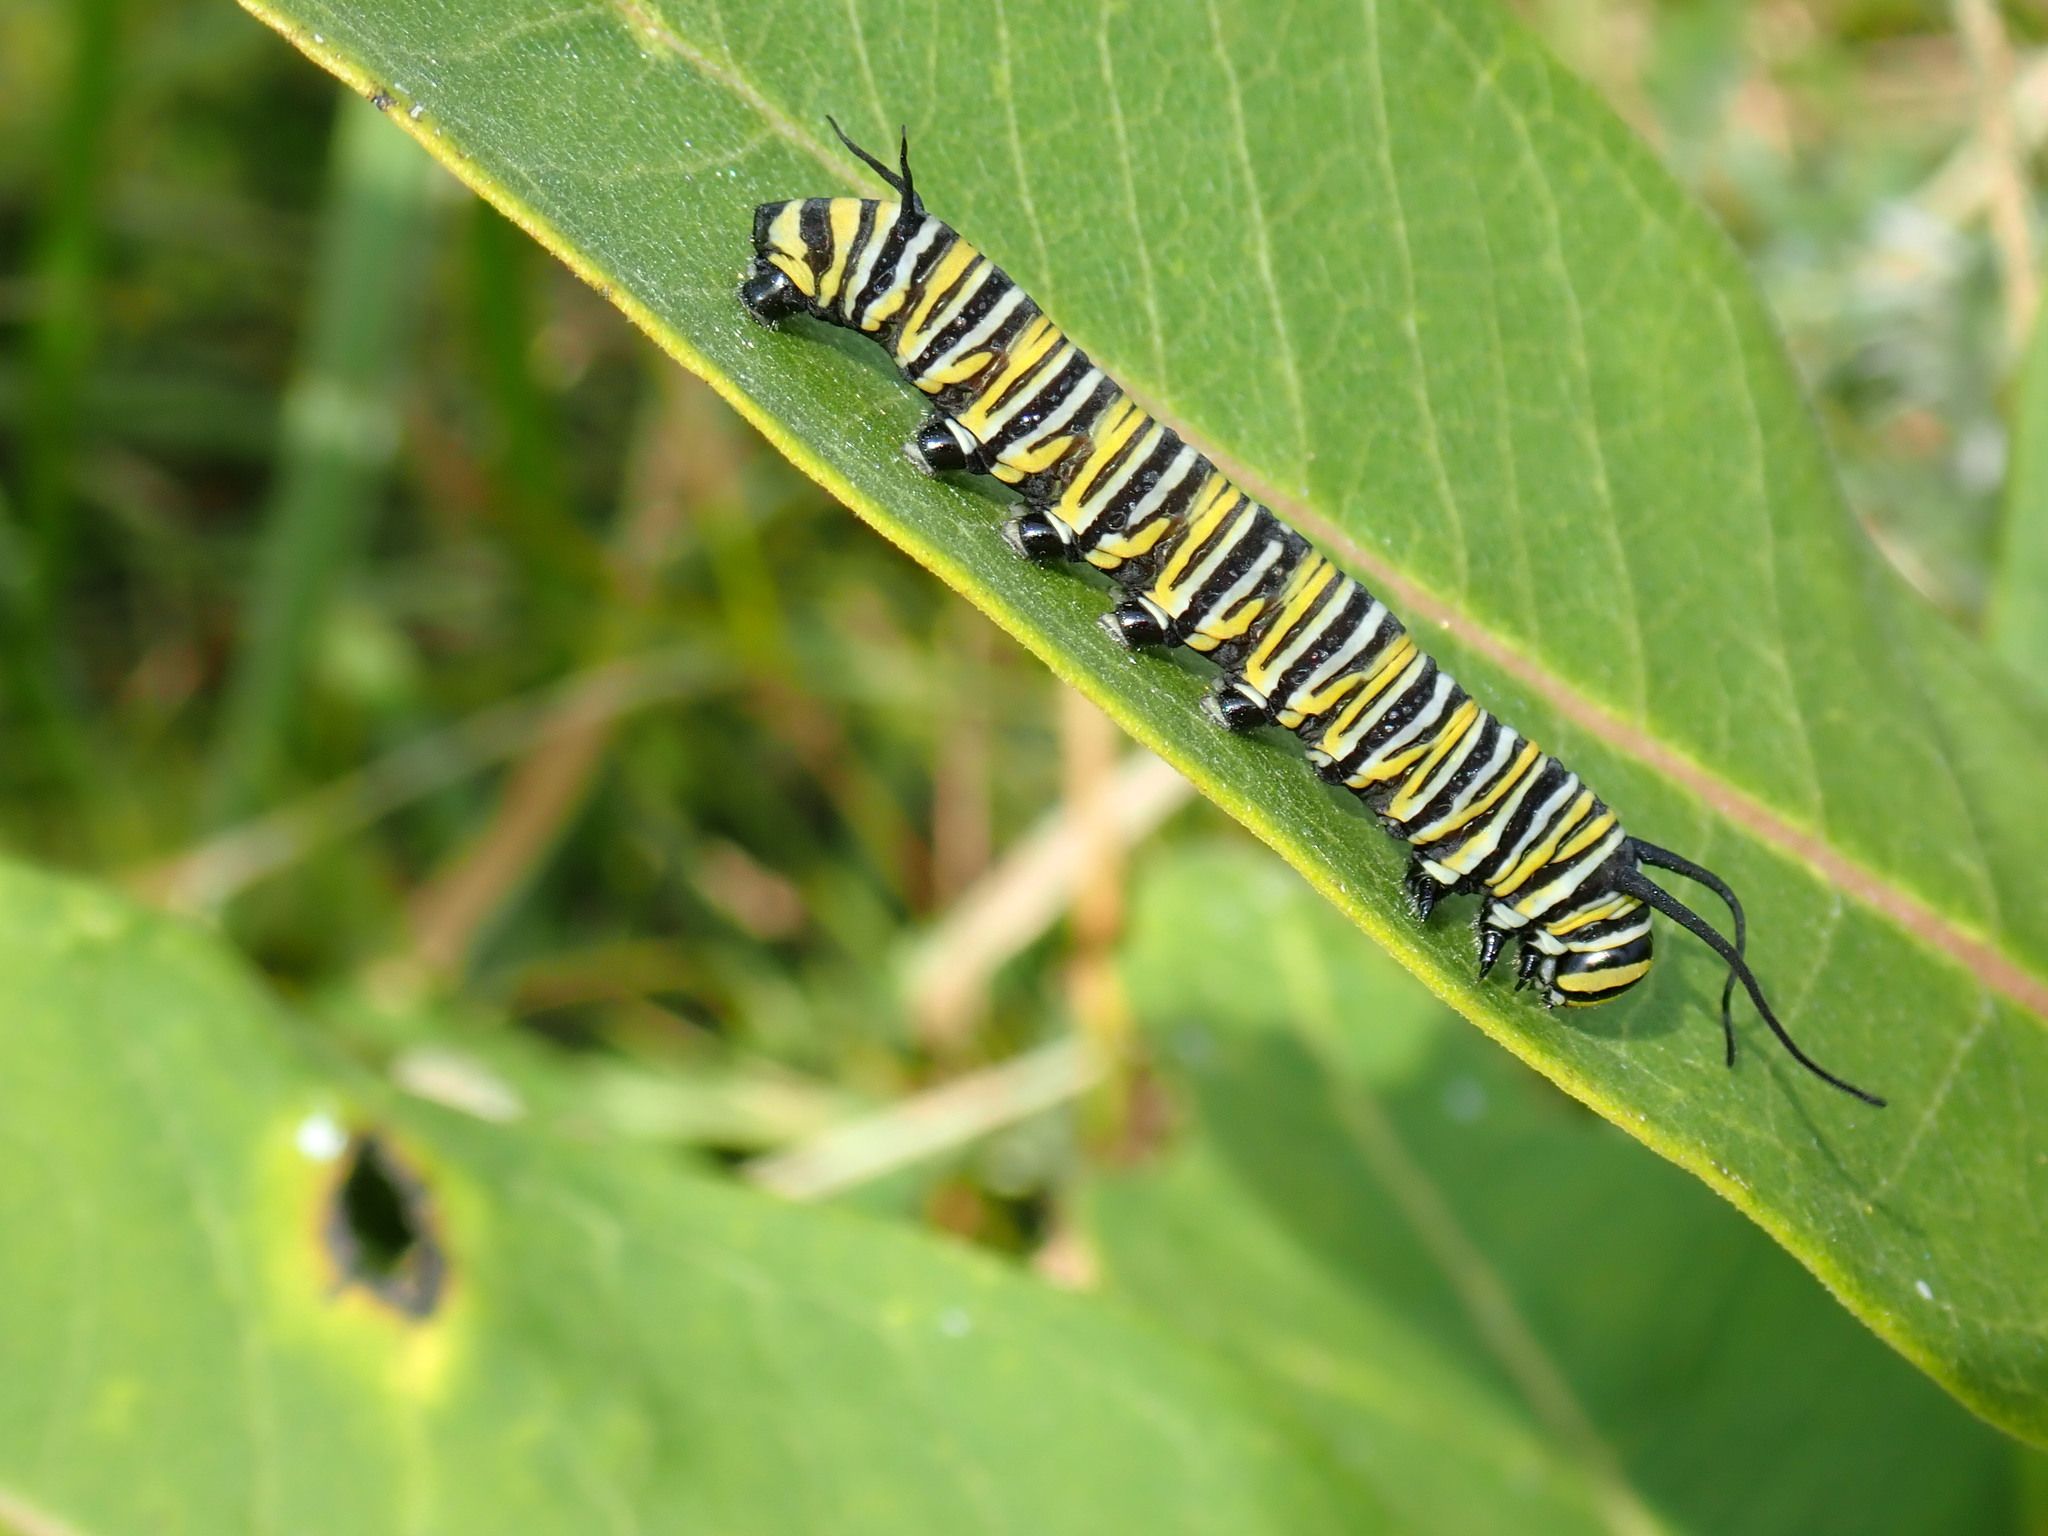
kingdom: Animalia
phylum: Arthropoda
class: Insecta
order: Lepidoptera
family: Nymphalidae
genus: Danaus
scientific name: Danaus plexippus
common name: Monarch
